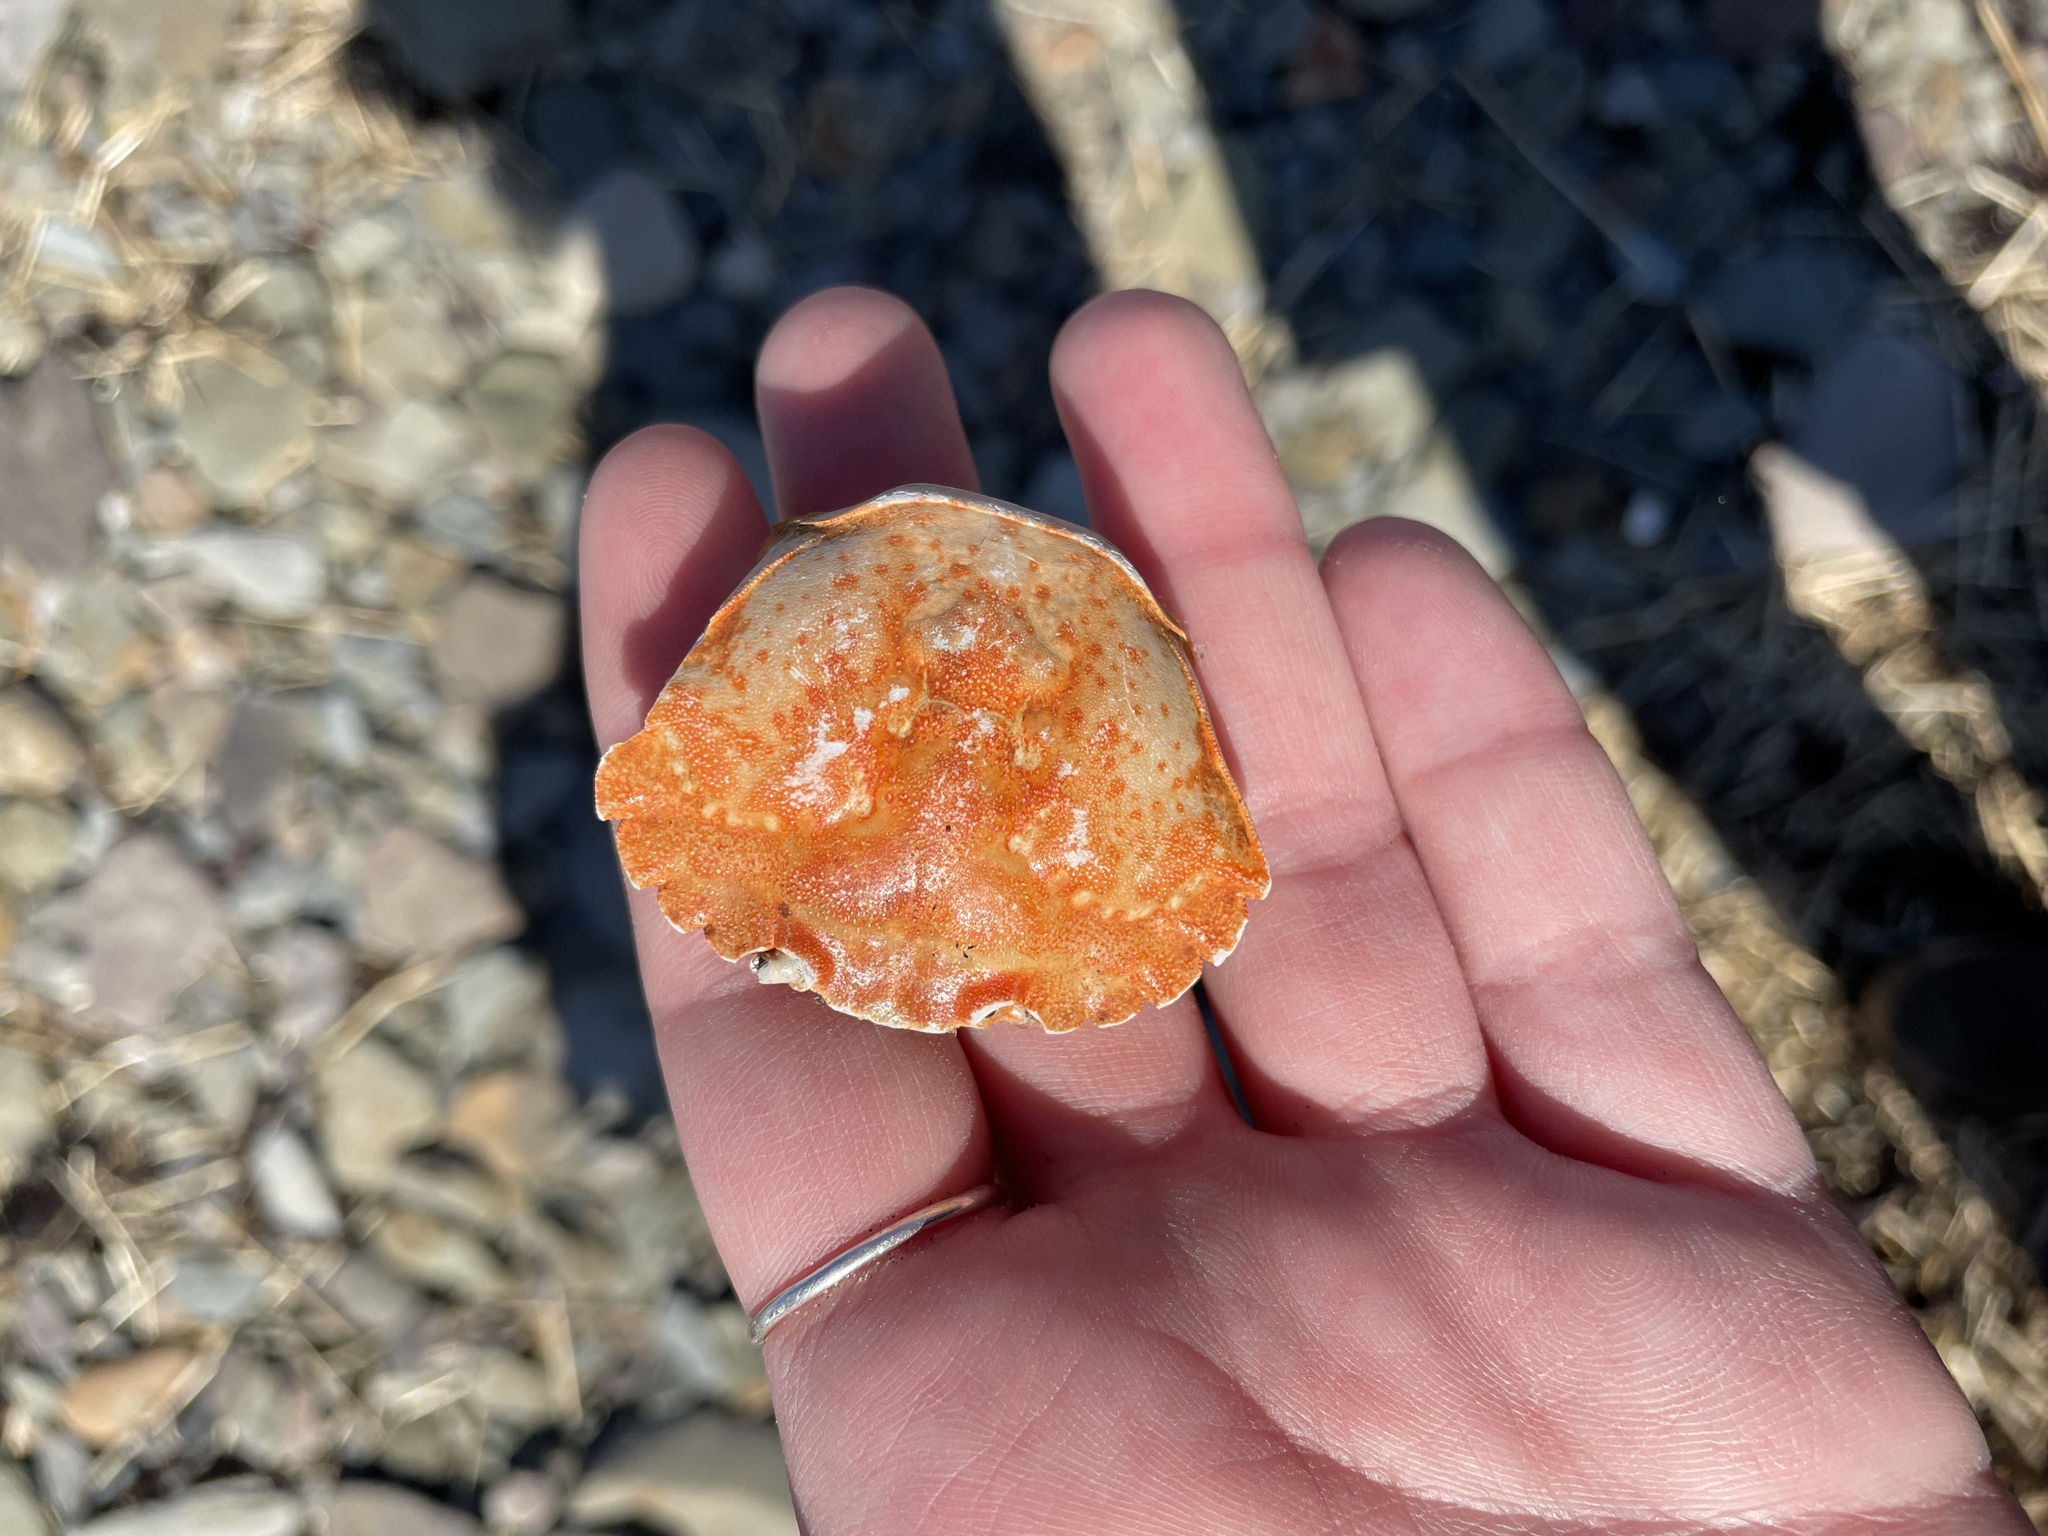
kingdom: Animalia
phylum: Arthropoda
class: Malacostraca
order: Decapoda
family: Carcinidae
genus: Carcinus
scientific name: Carcinus maenas
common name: European green crab
